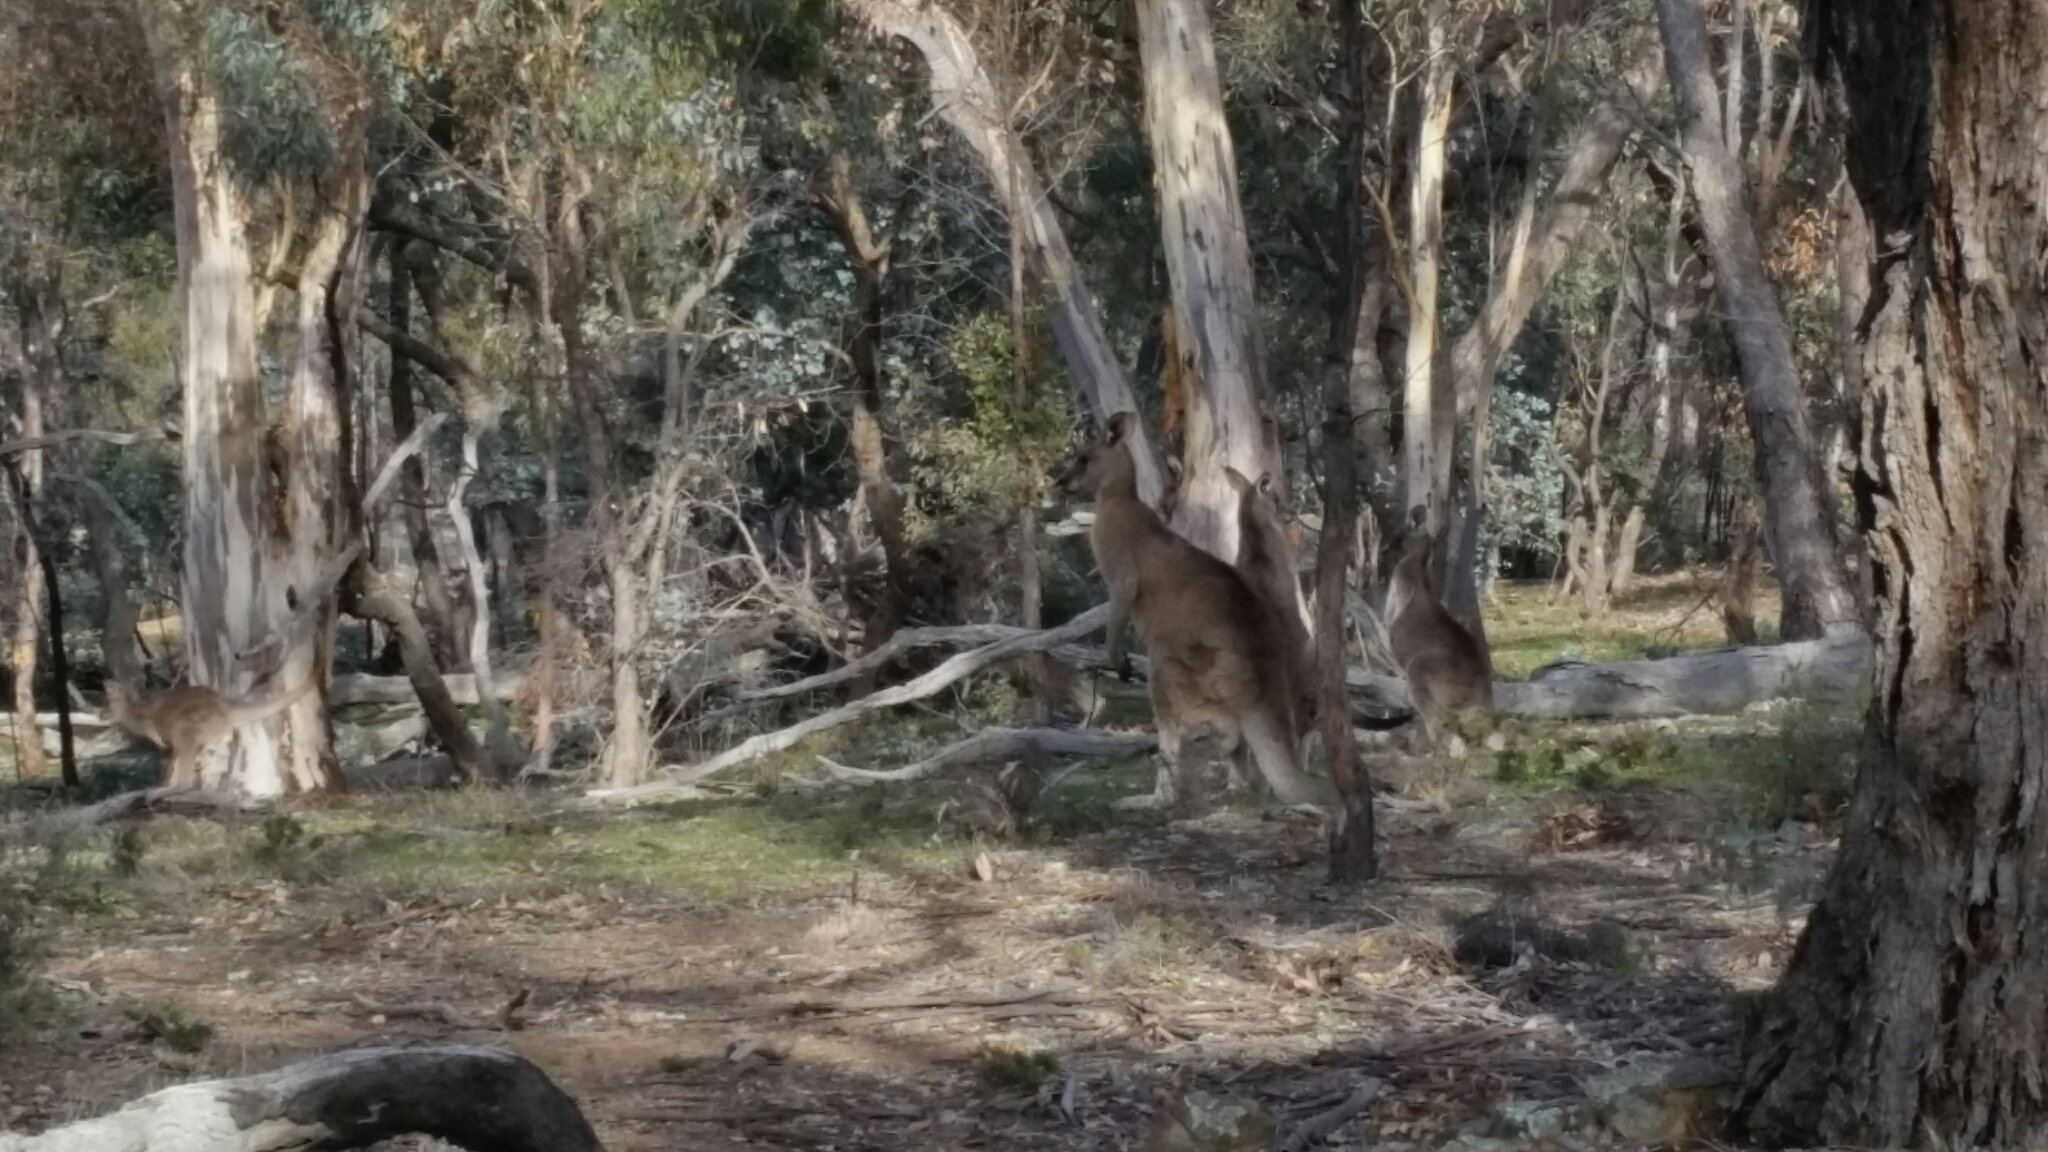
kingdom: Animalia
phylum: Chordata
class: Mammalia
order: Diprotodontia
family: Macropodidae
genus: Macropus
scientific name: Macropus giganteus
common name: Eastern grey kangaroo
